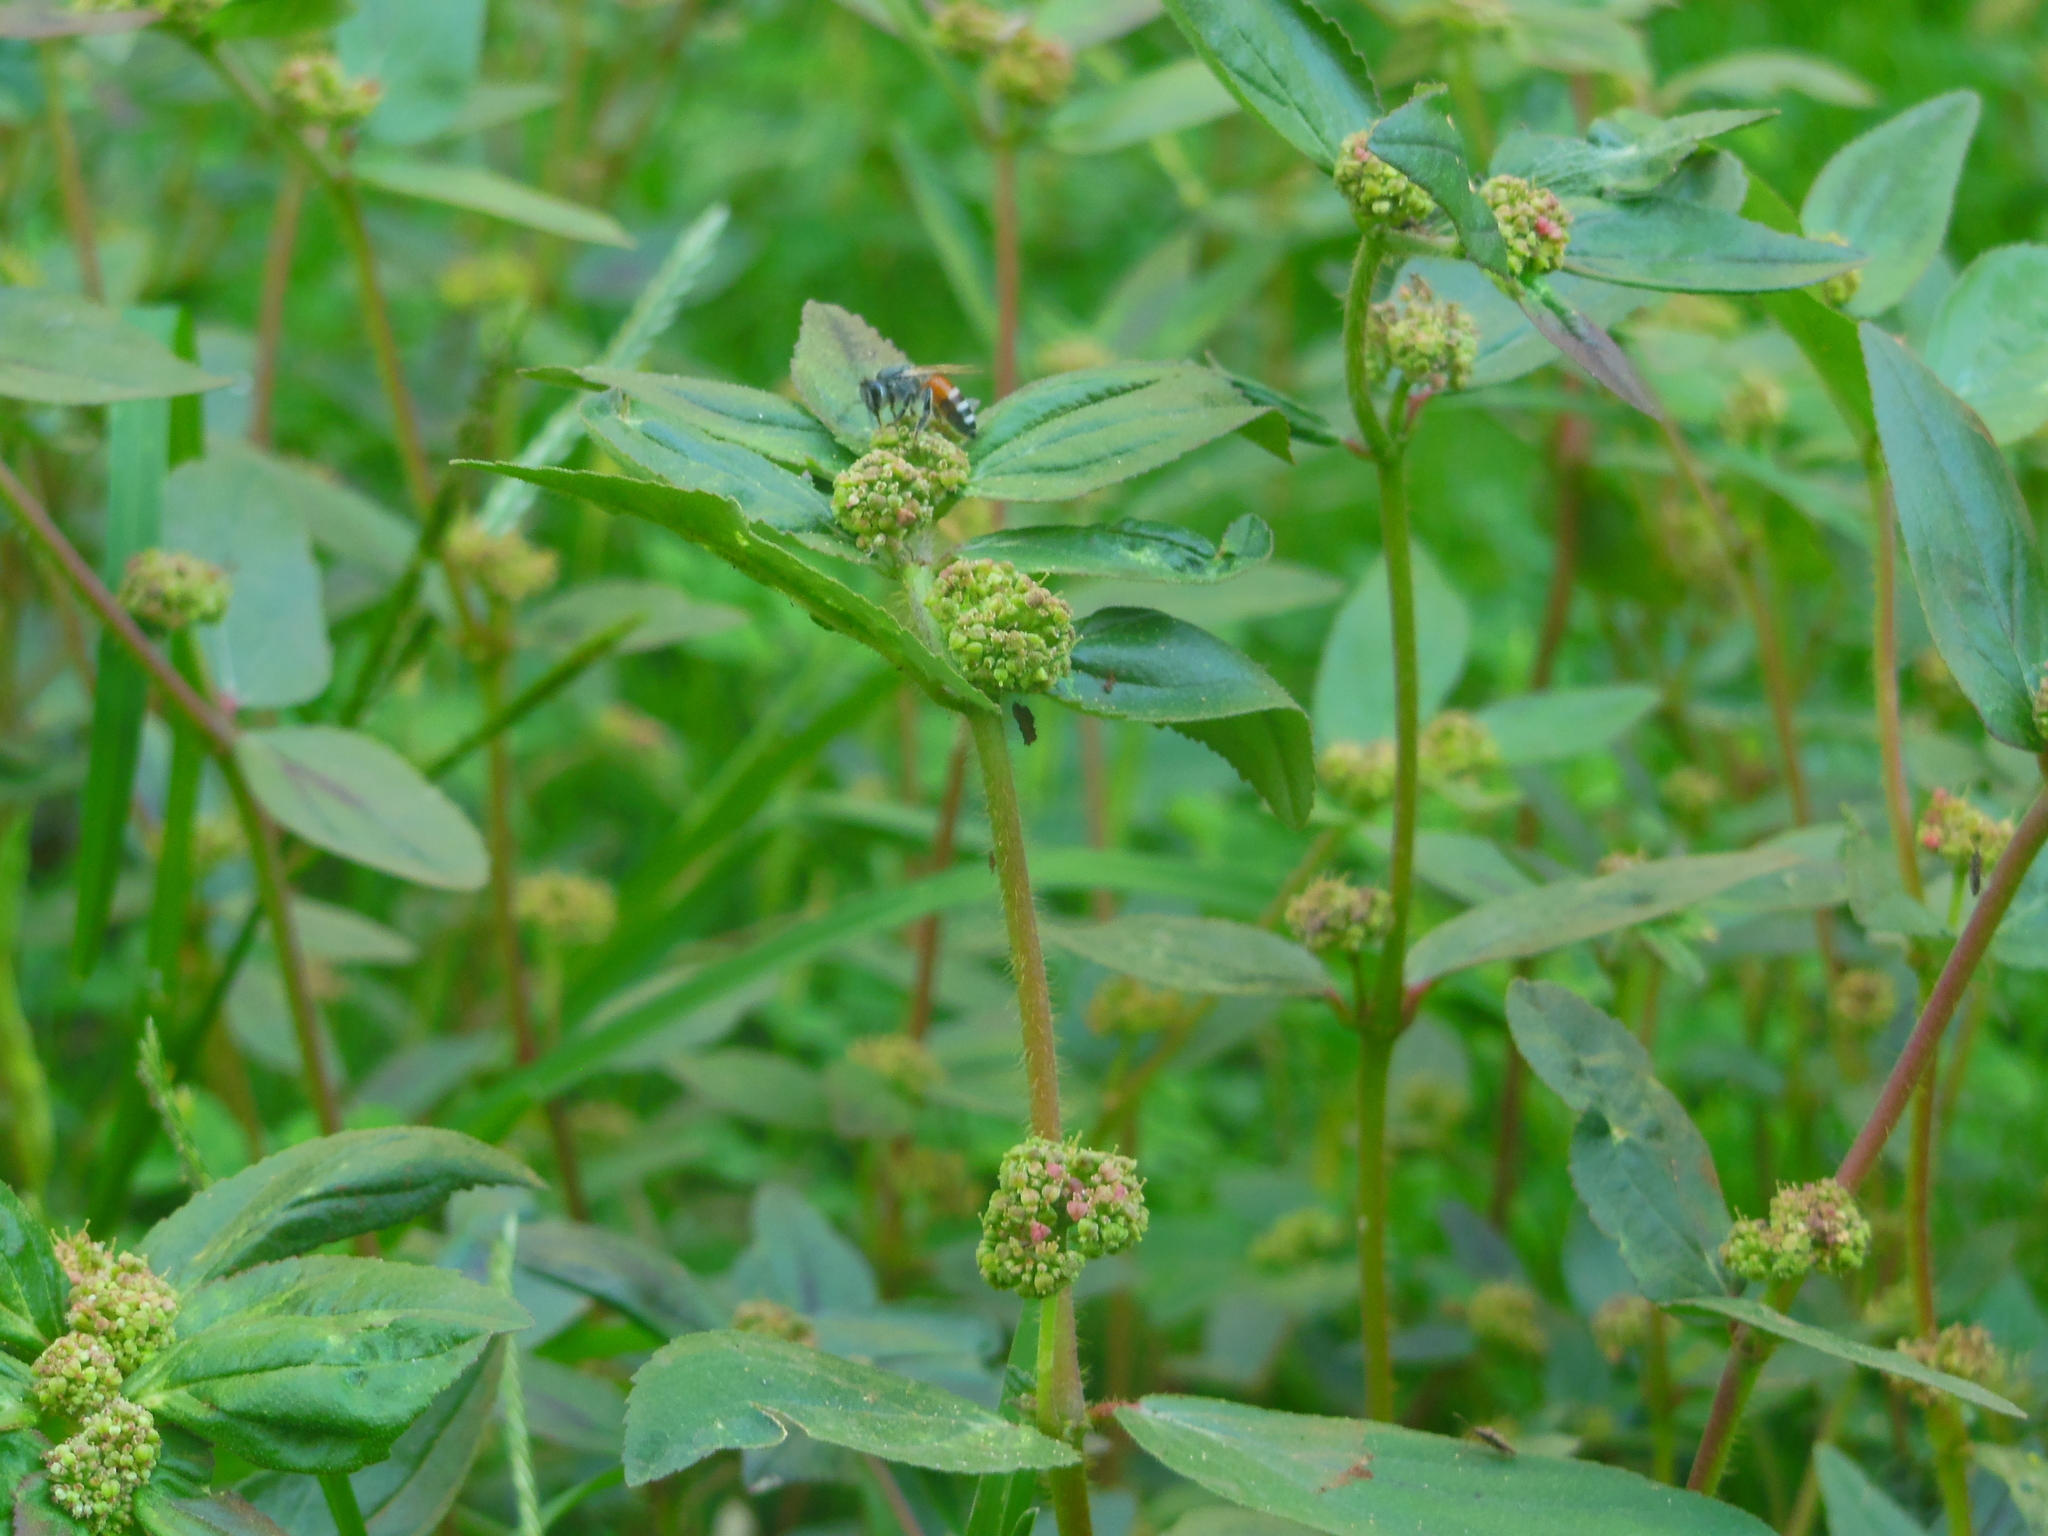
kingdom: Animalia
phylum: Arthropoda
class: Insecta
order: Hymenoptera
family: Apidae
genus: Apis
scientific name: Apis florea
